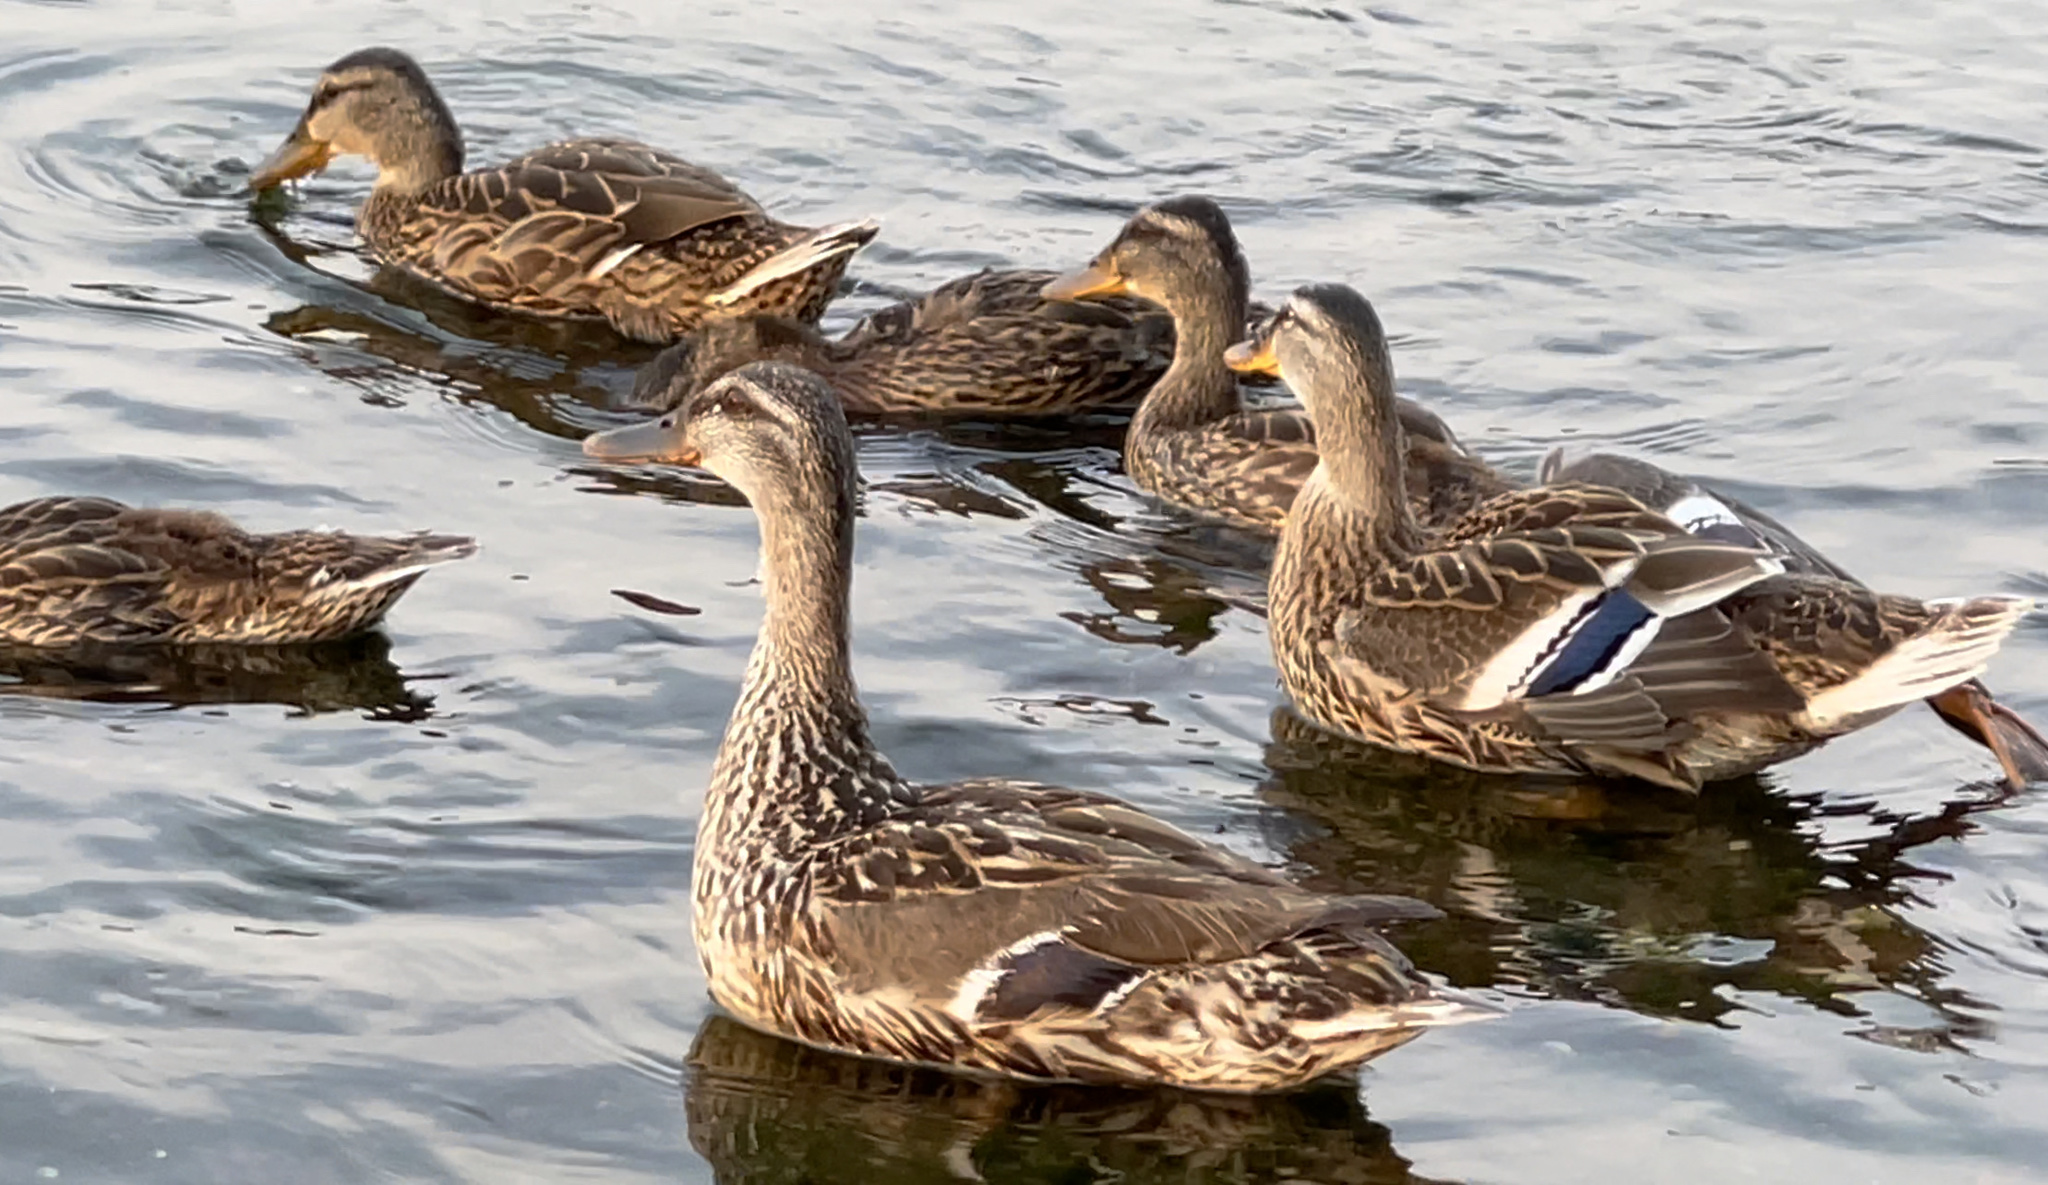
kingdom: Animalia
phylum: Chordata
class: Aves
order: Anseriformes
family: Anatidae
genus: Anas
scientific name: Anas platyrhynchos
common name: Mallard
